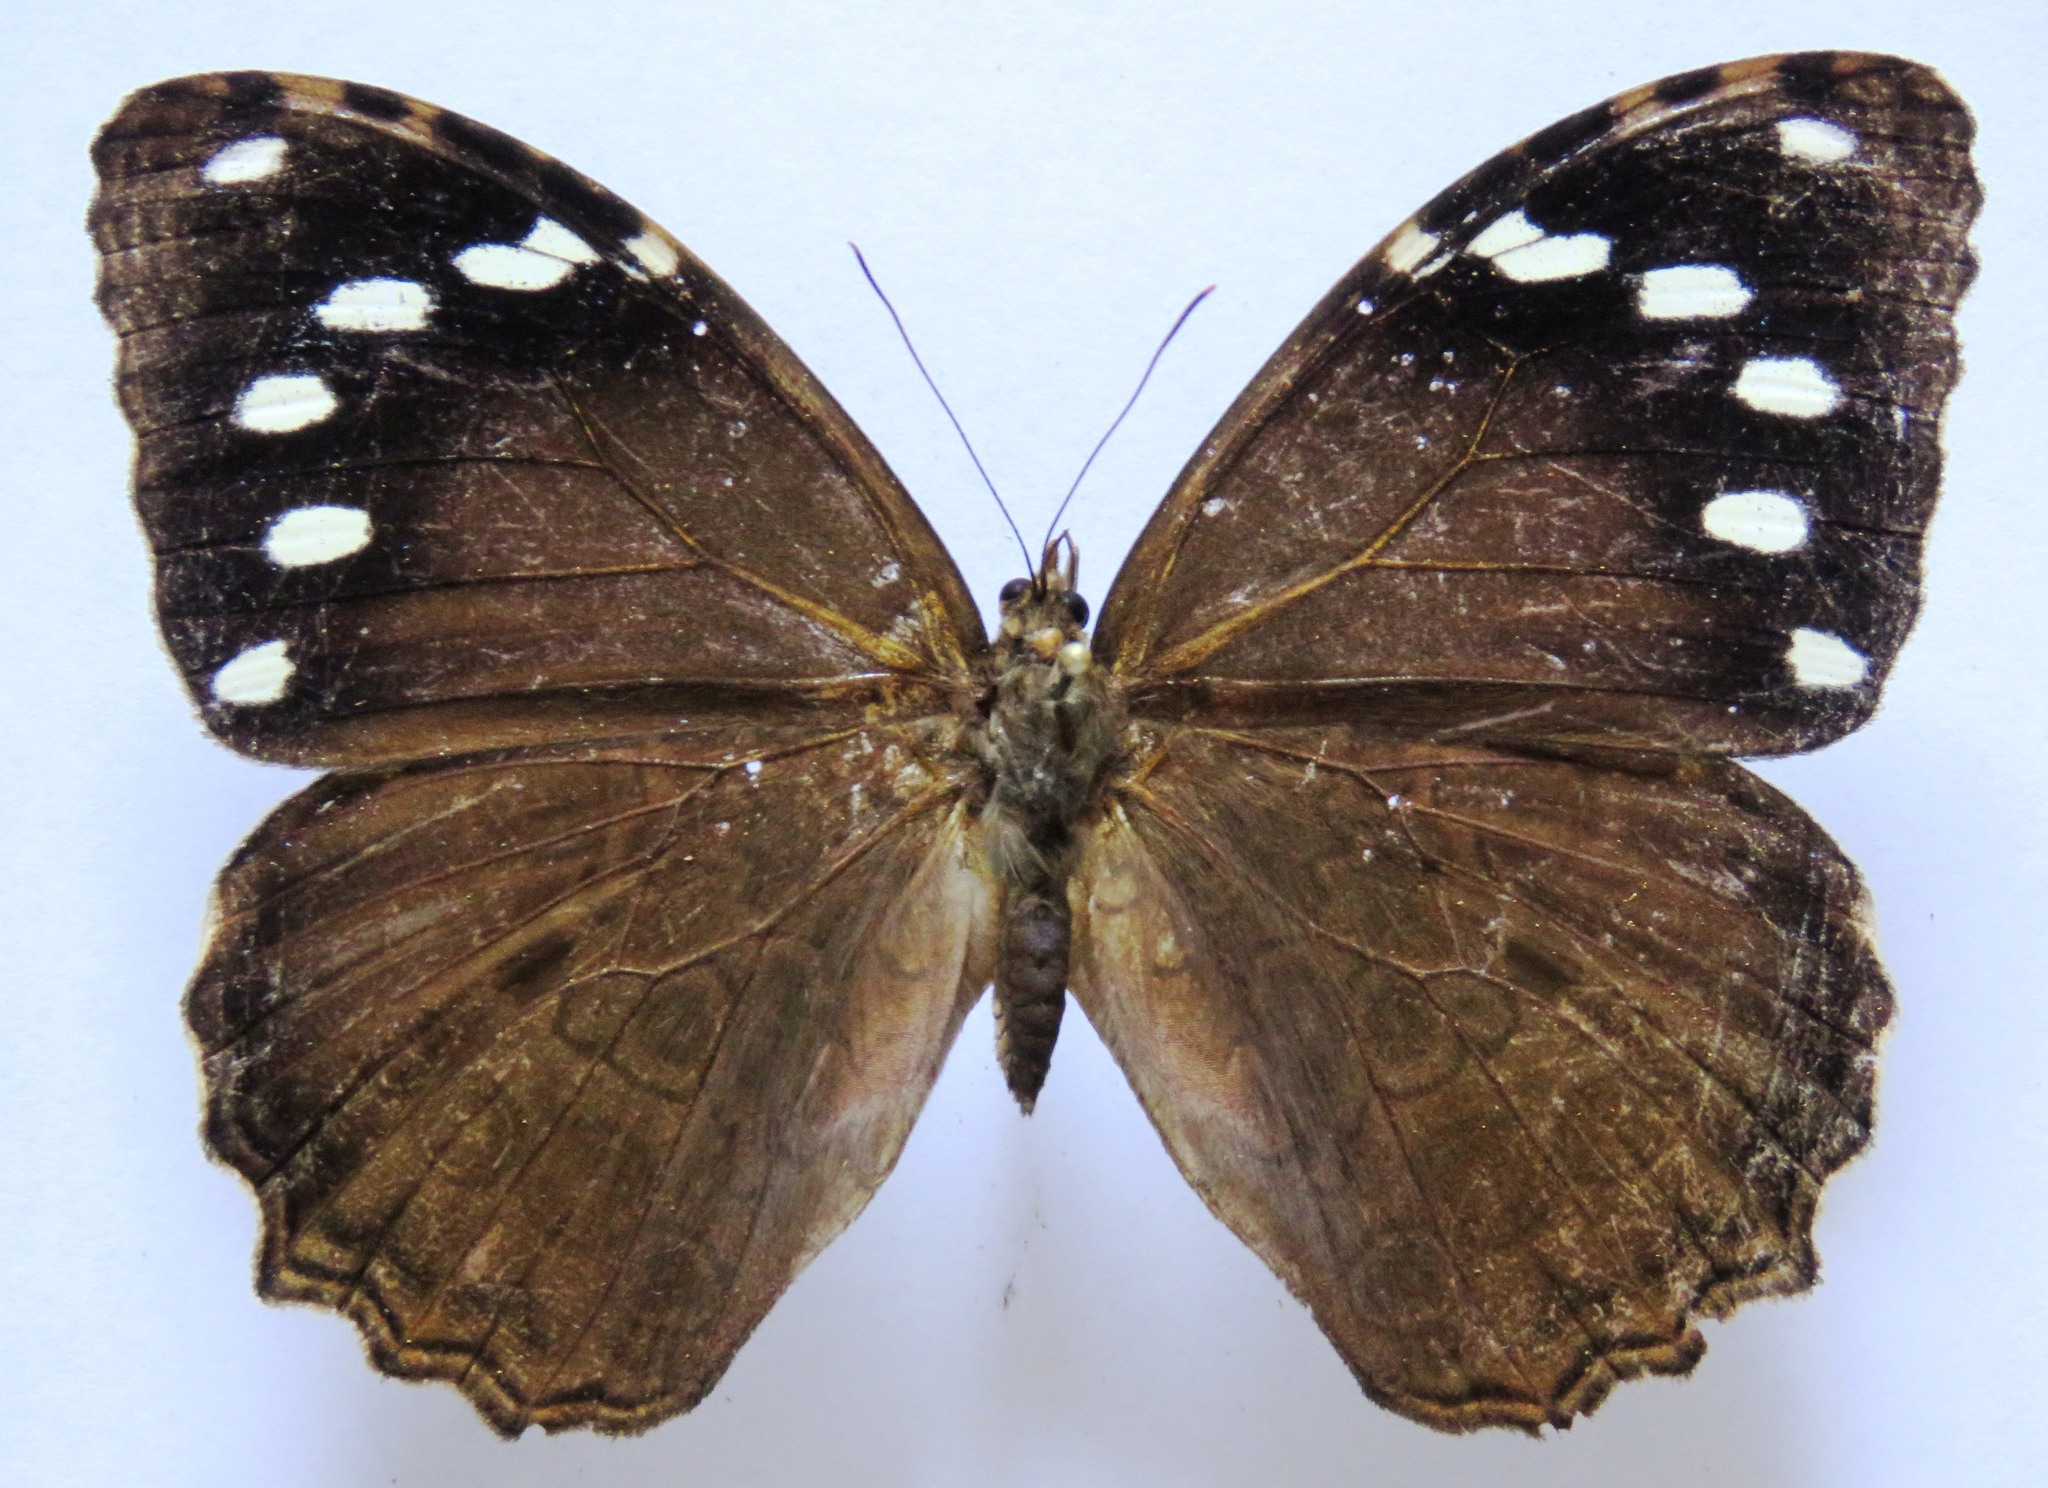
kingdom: Animalia
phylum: Arthropoda
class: Insecta
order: Lepidoptera
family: Nymphalidae
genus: Manataria
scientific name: Manataria maculata
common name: White-spotted satyr
